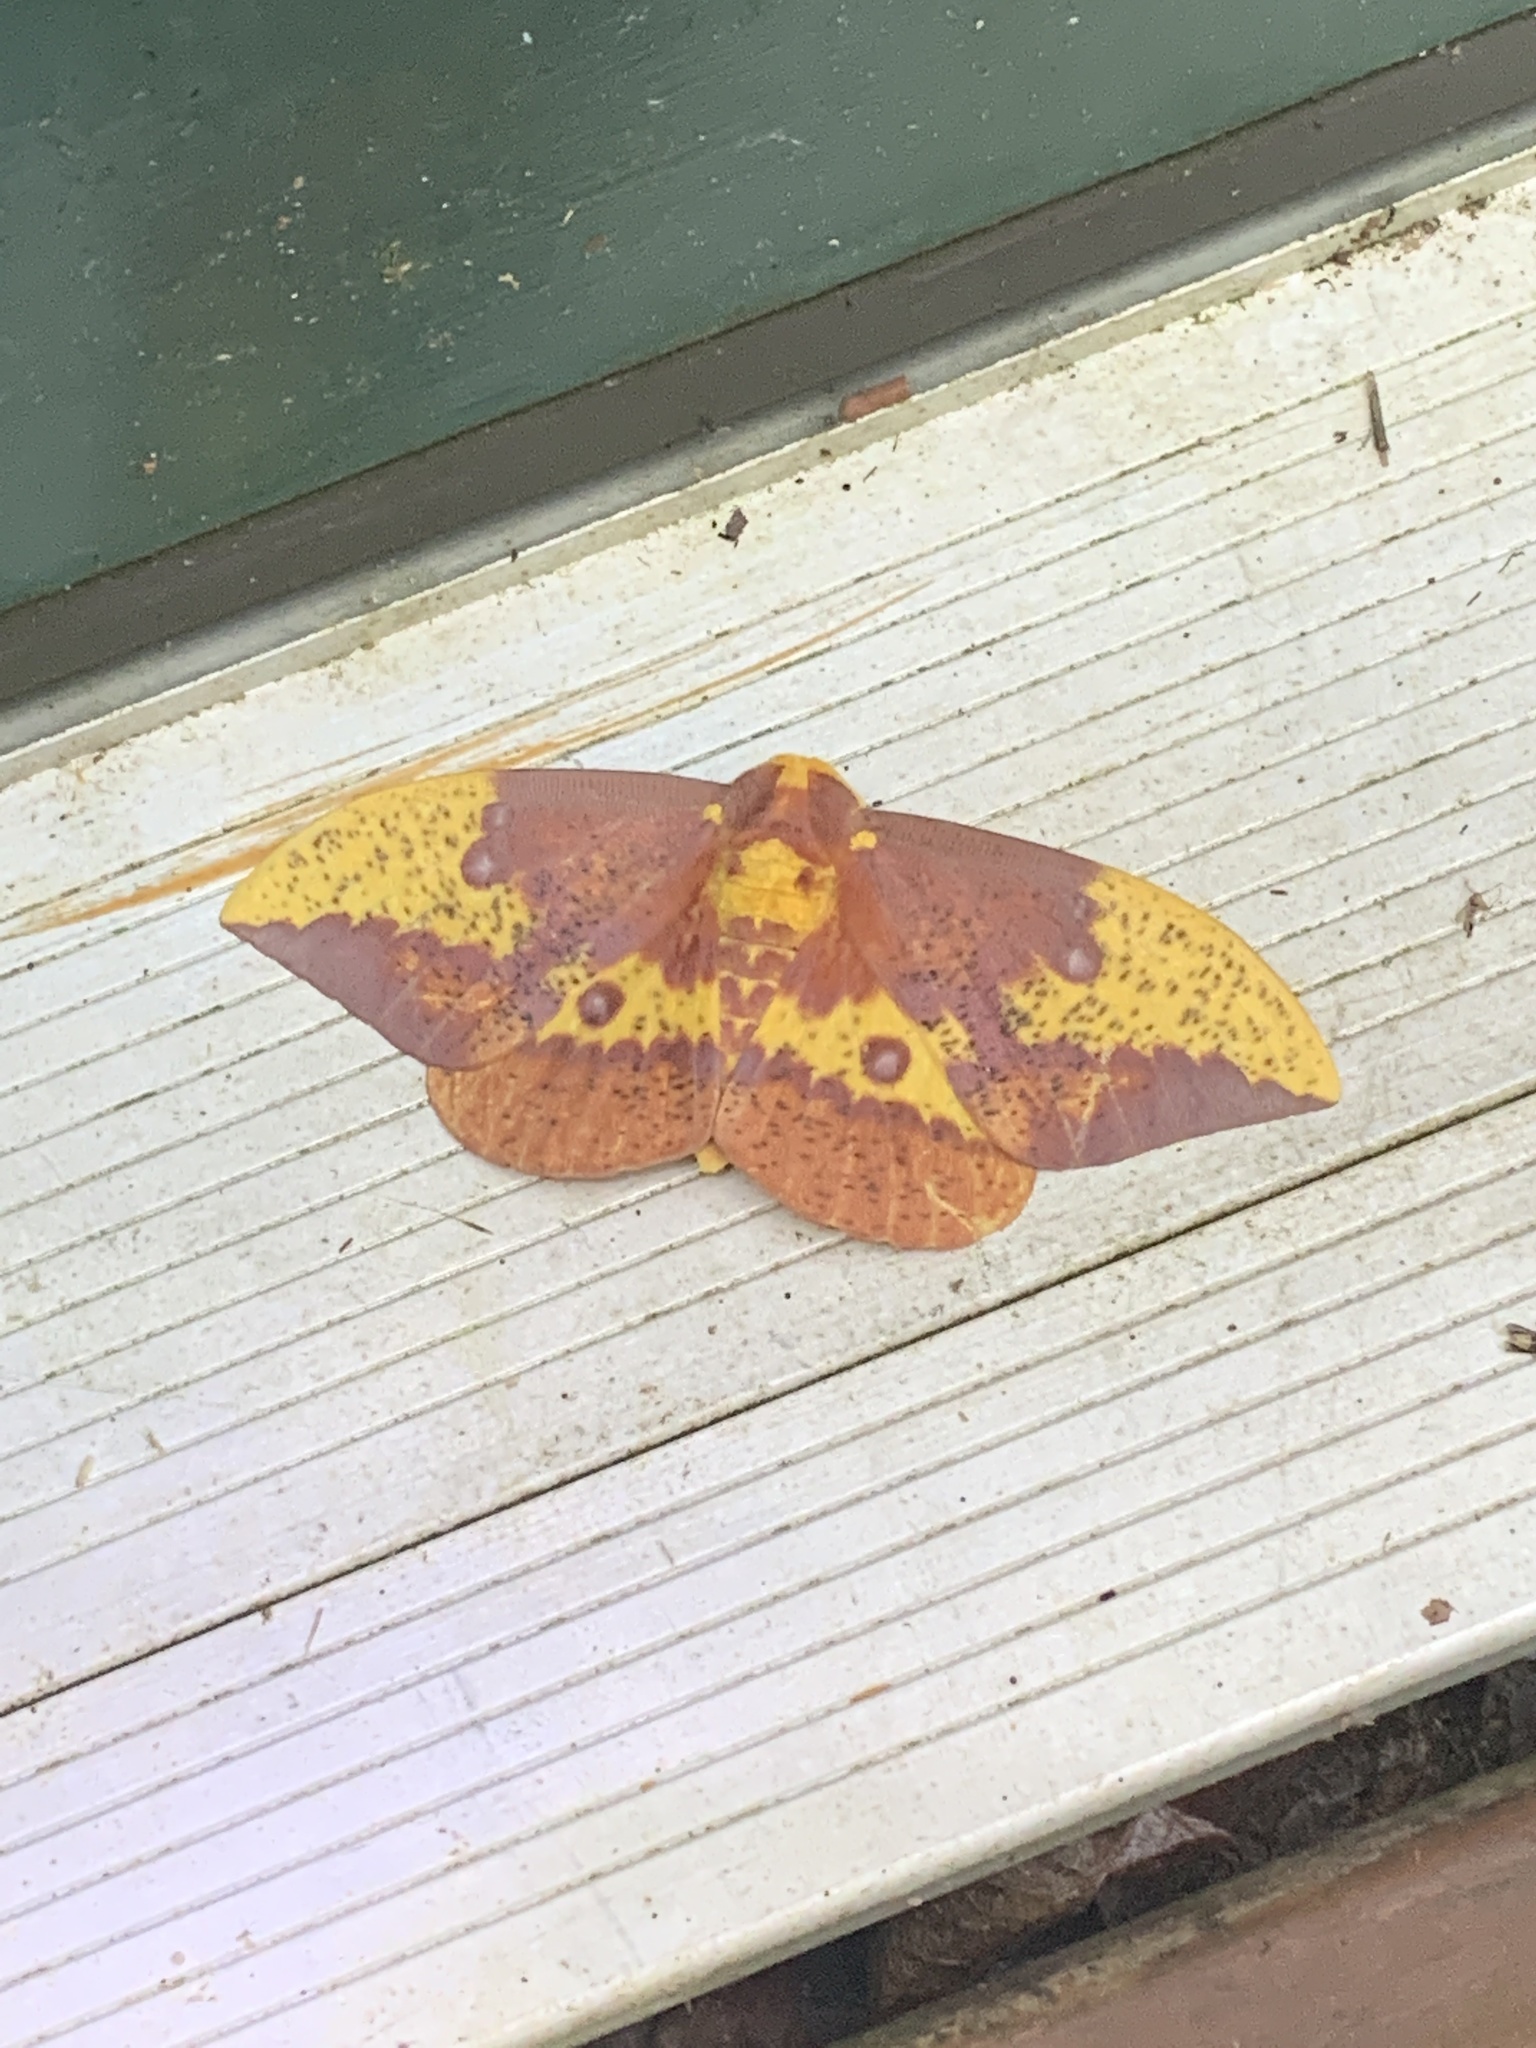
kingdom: Animalia
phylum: Arthropoda
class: Insecta
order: Lepidoptera
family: Saturniidae
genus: Eacles
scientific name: Eacles imperialis
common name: Imperial moth
